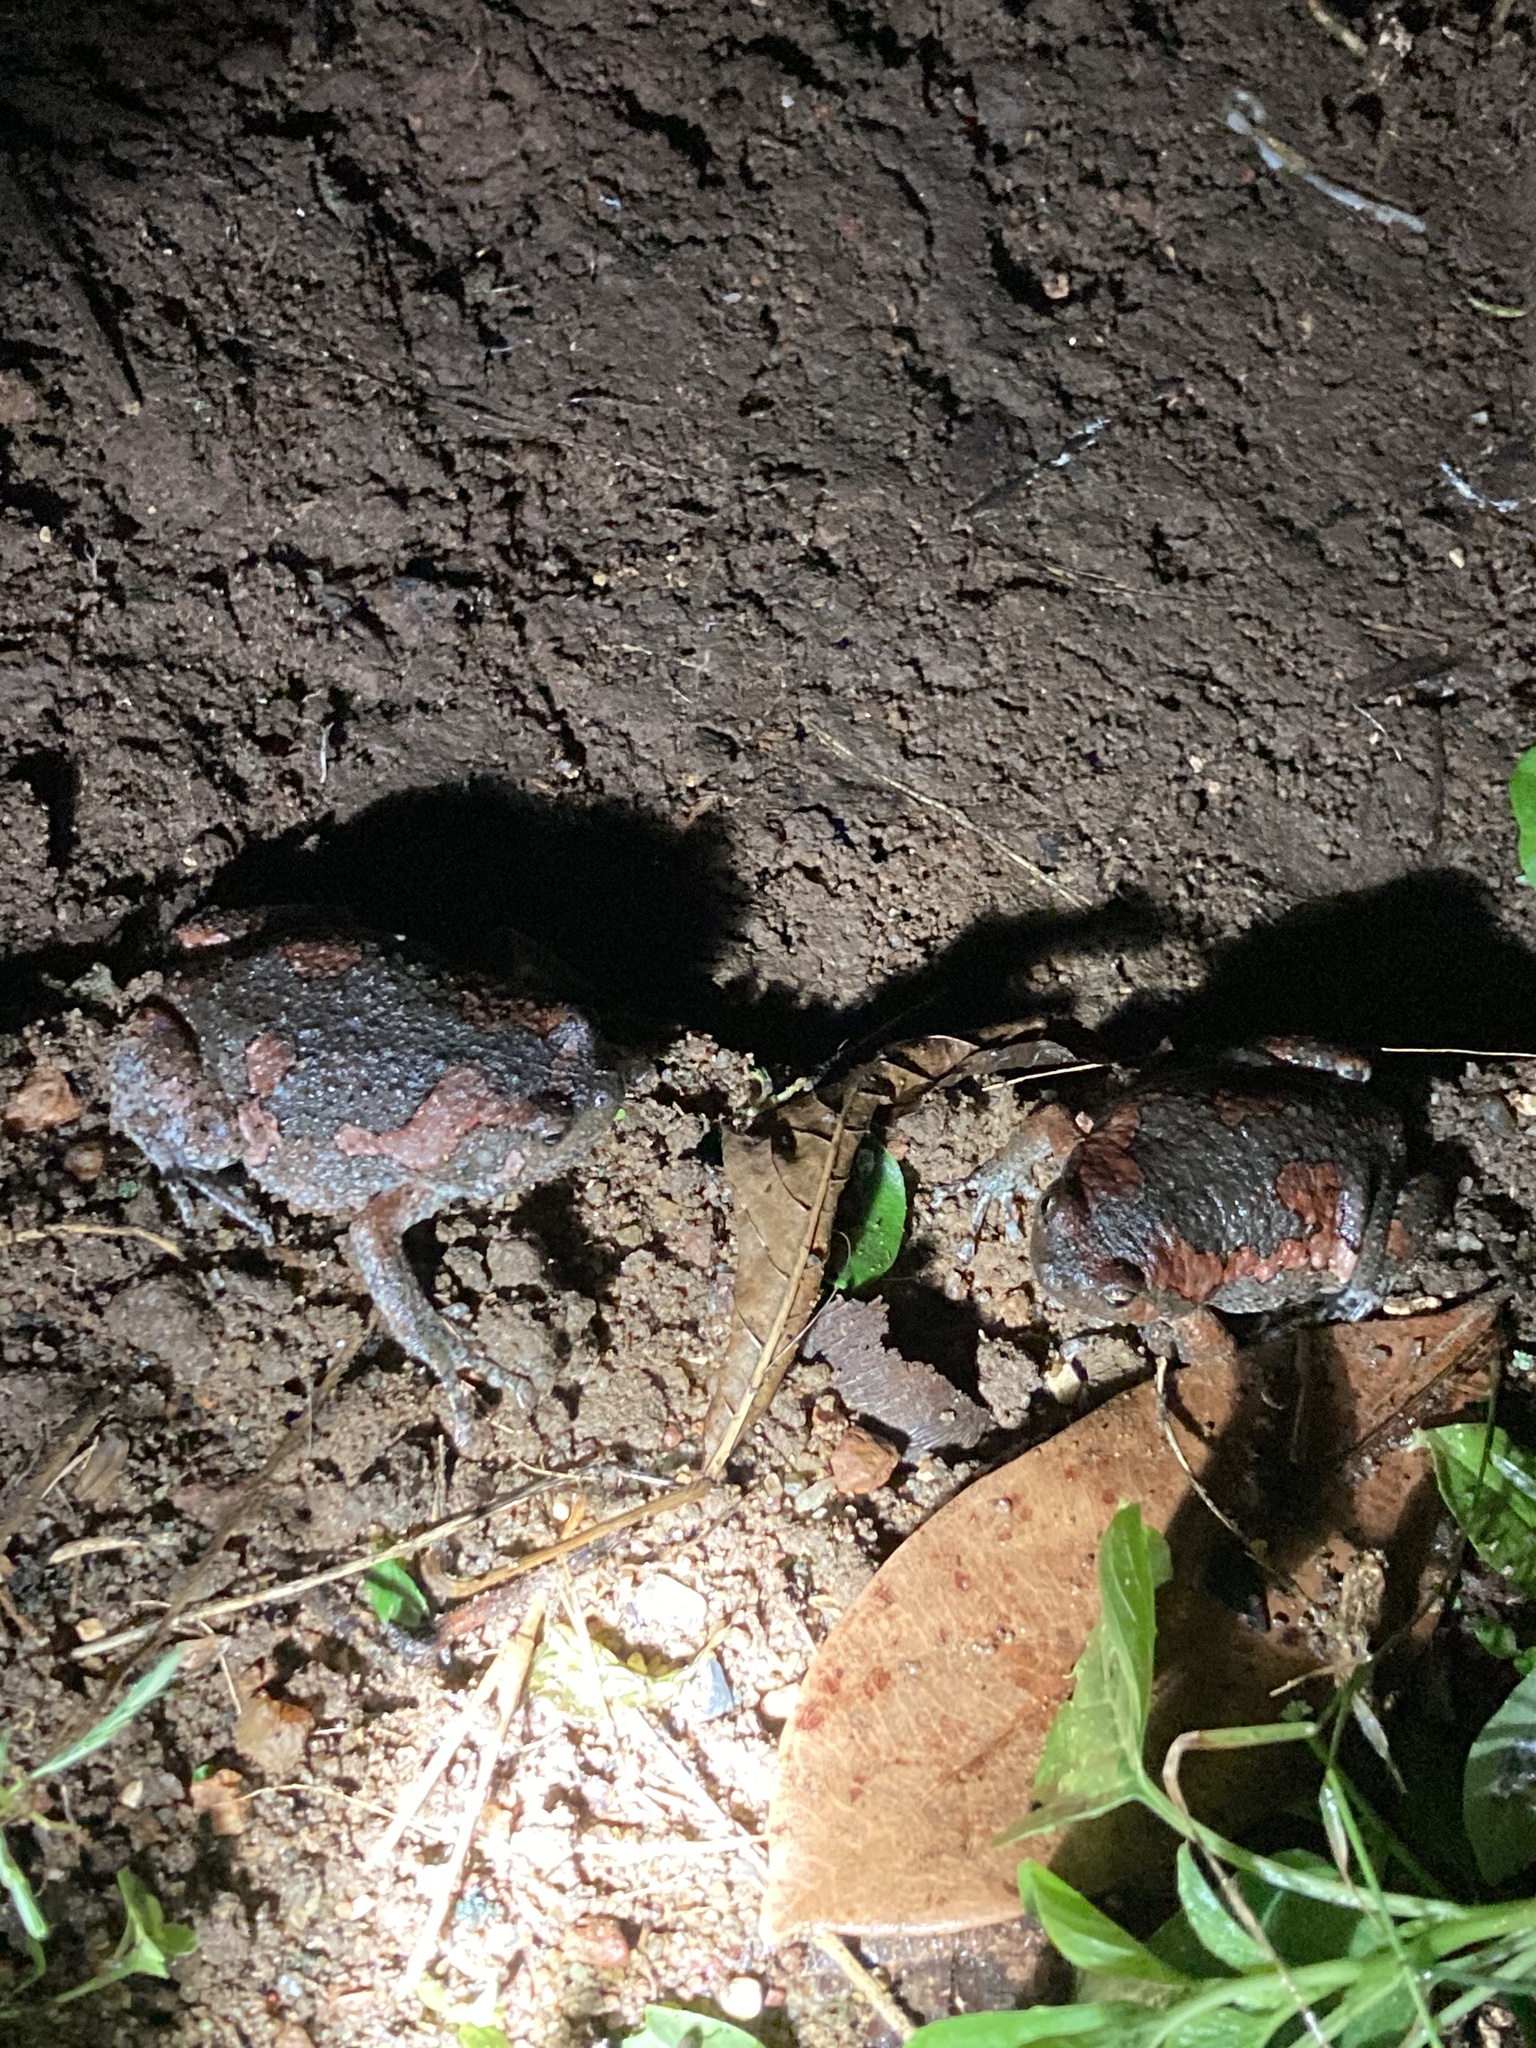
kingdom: Animalia
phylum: Chordata
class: Amphibia
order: Anura
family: Microhylidae
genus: Uperodon
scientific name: Uperodon taprobanicus
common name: Ceylon kaloula
